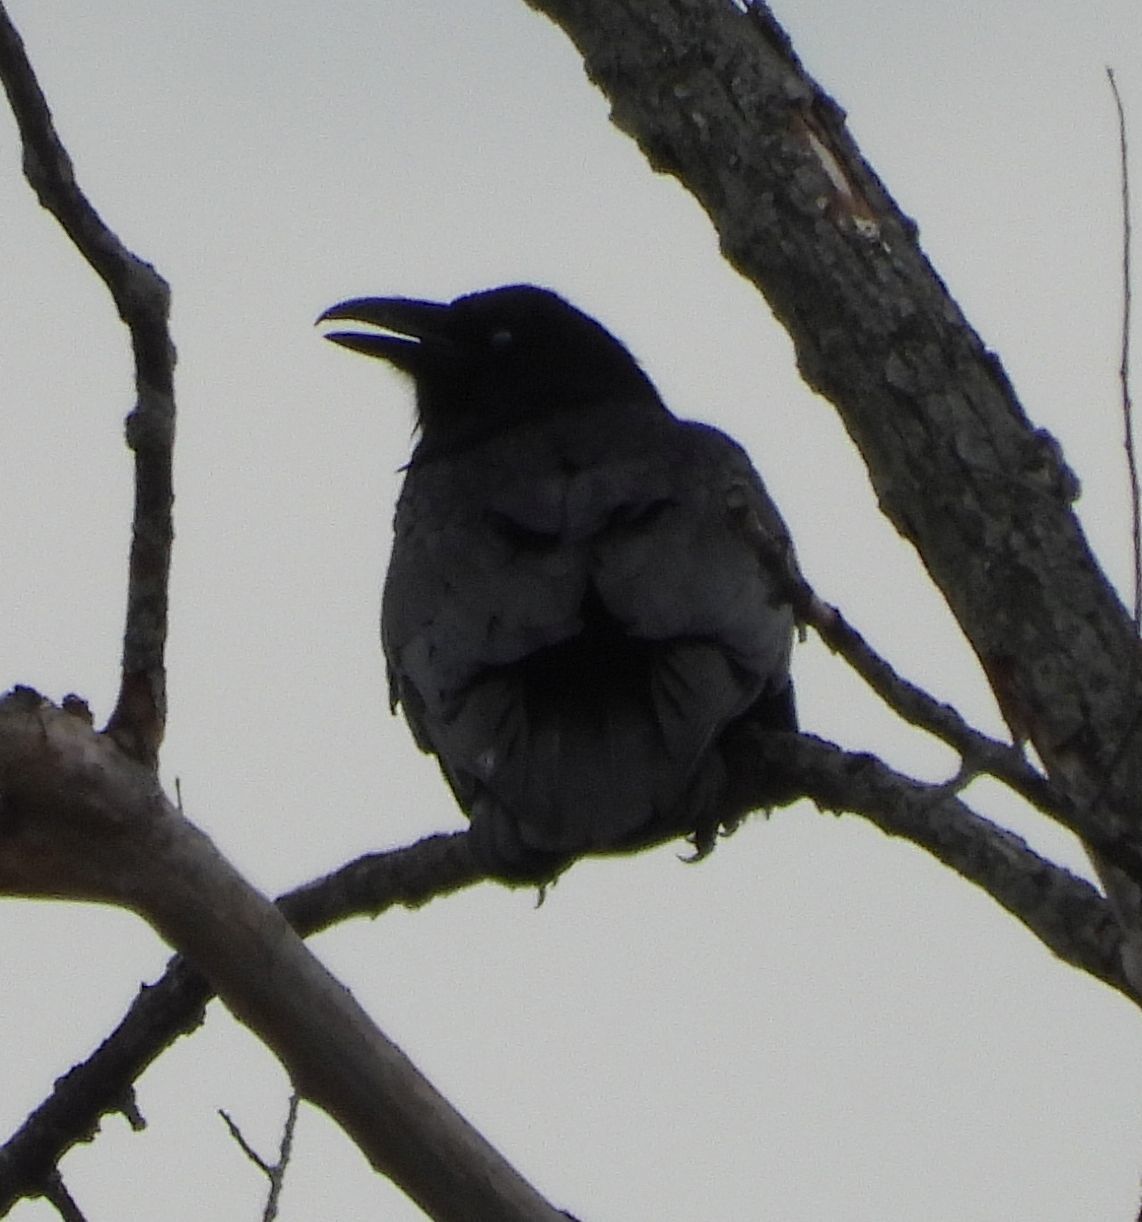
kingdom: Animalia
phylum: Chordata
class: Aves
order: Passeriformes
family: Corvidae
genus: Corvus
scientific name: Corvus corax
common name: Common raven
